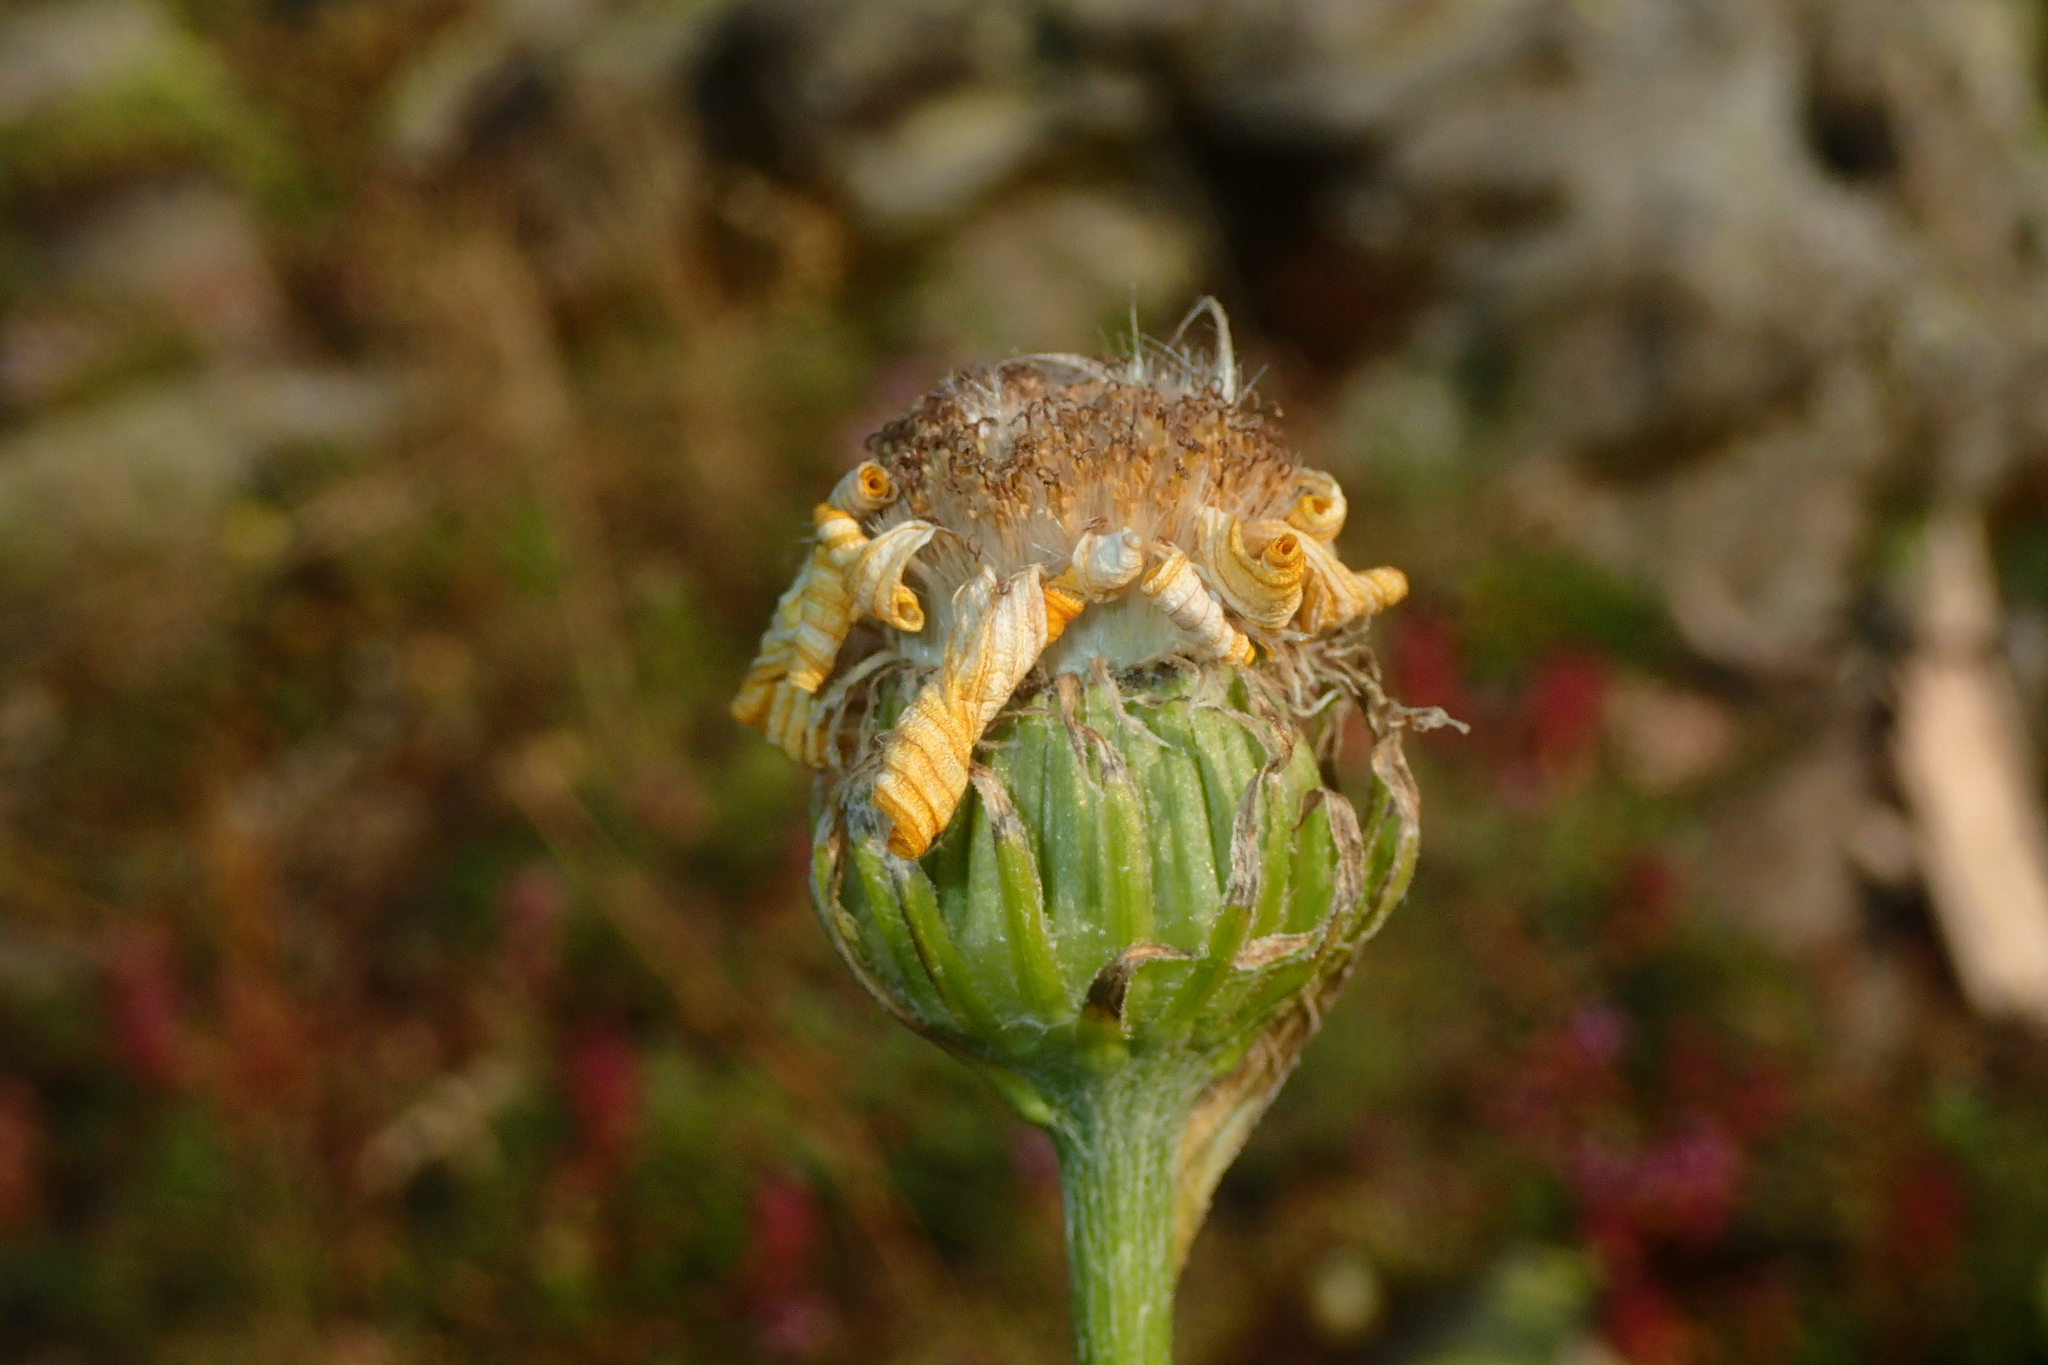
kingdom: Plantae
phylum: Tracheophyta
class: Magnoliopsida
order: Asterales
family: Asteraceae
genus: Senecio
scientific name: Senecio doronicum
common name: Chamois ragwort
